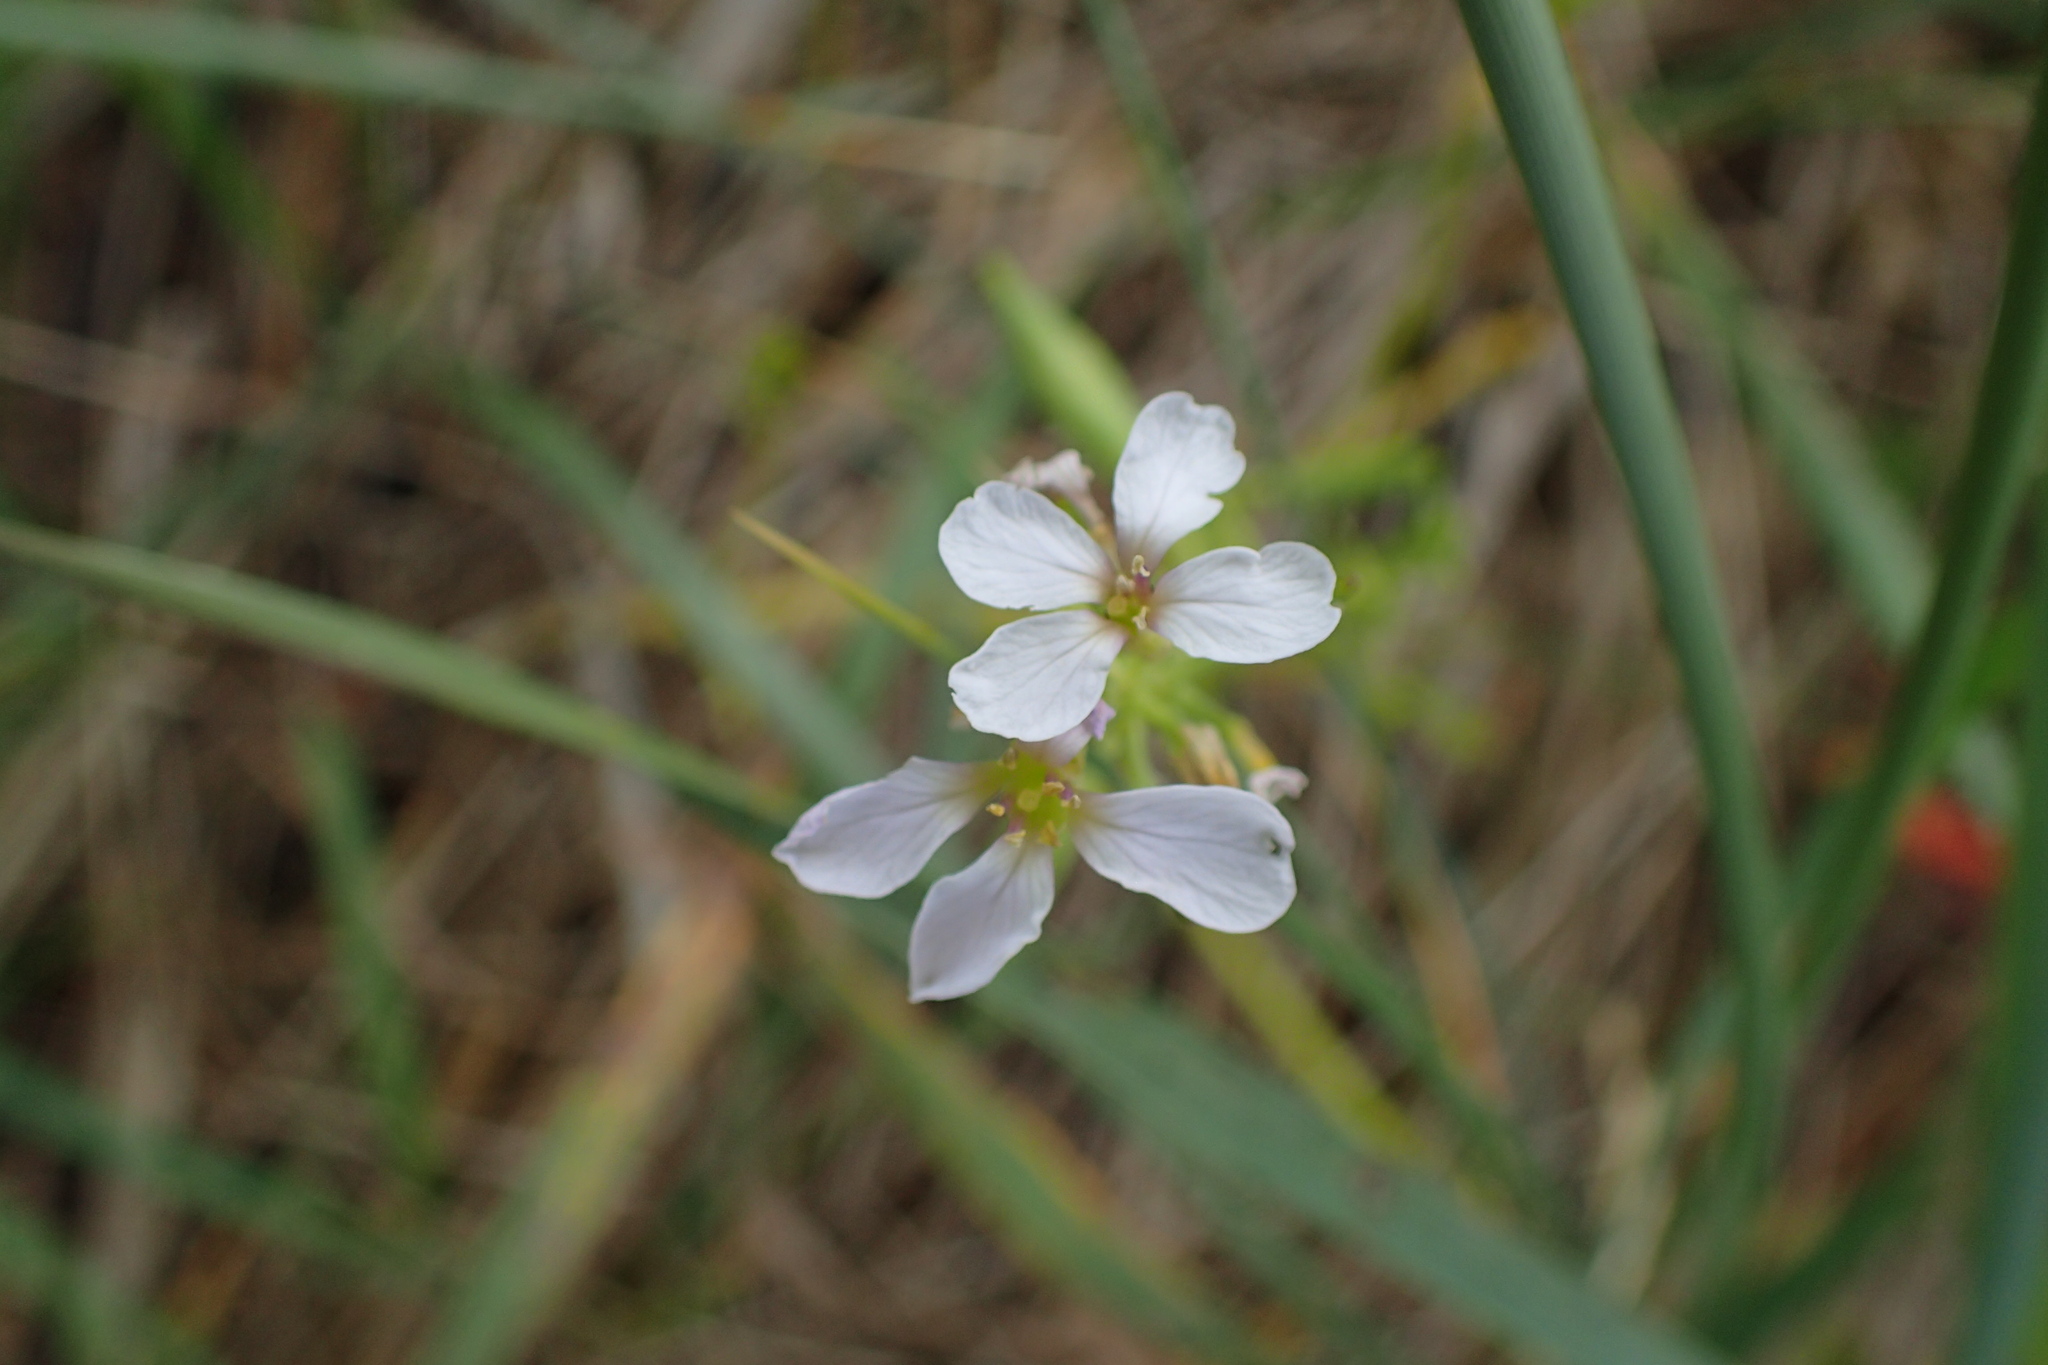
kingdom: Plantae
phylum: Tracheophyta
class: Magnoliopsida
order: Brassicales
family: Brassicaceae
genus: Cakile
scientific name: Cakile maritima
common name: Sea rocket
